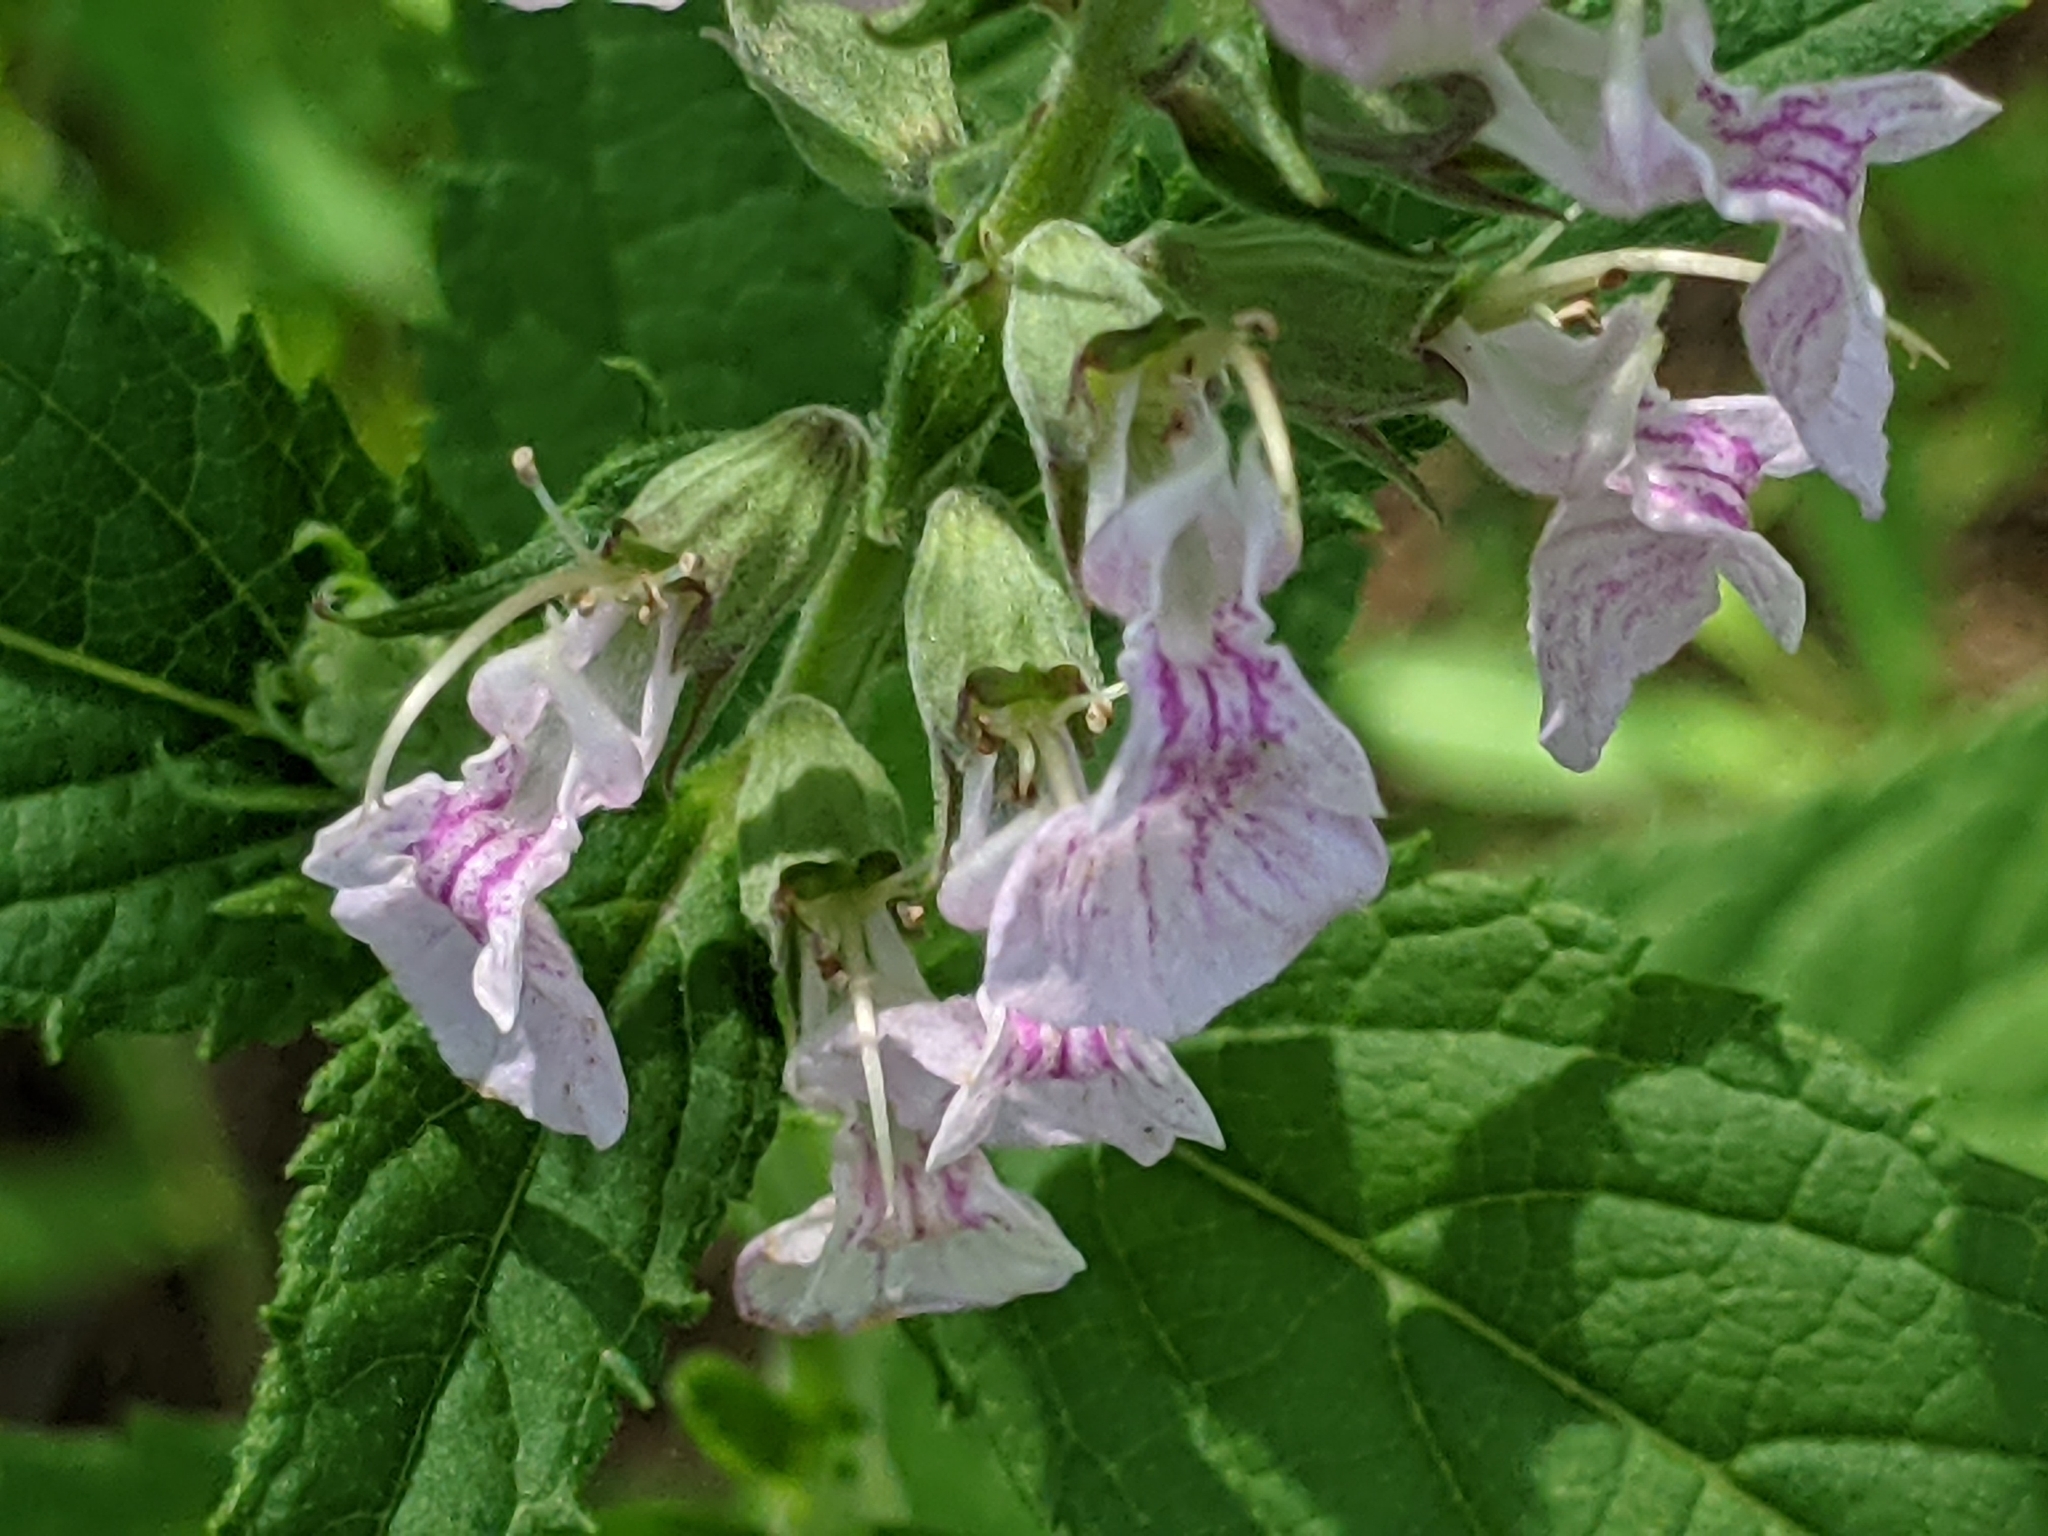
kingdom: Plantae
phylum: Tracheophyta
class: Magnoliopsida
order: Lamiales
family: Lamiaceae
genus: Teucrium
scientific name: Teucrium canadense
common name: American germander
